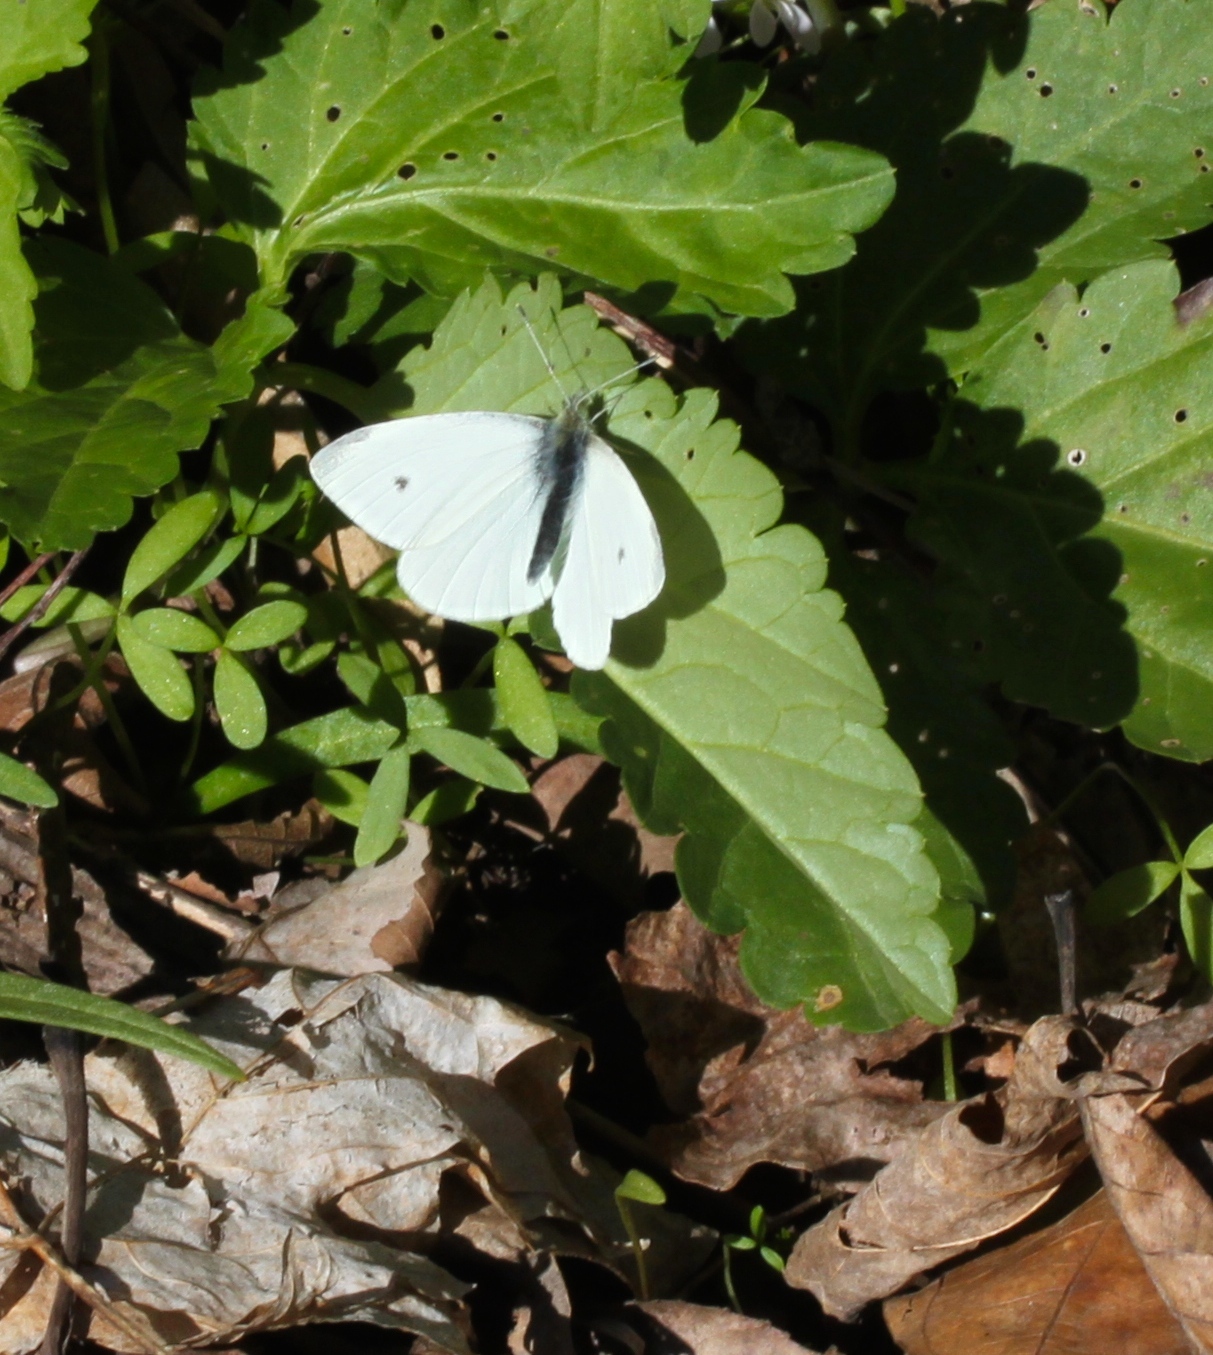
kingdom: Animalia
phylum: Arthropoda
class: Insecta
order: Lepidoptera
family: Pieridae
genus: Pieris
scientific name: Pieris rapae
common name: Small white
